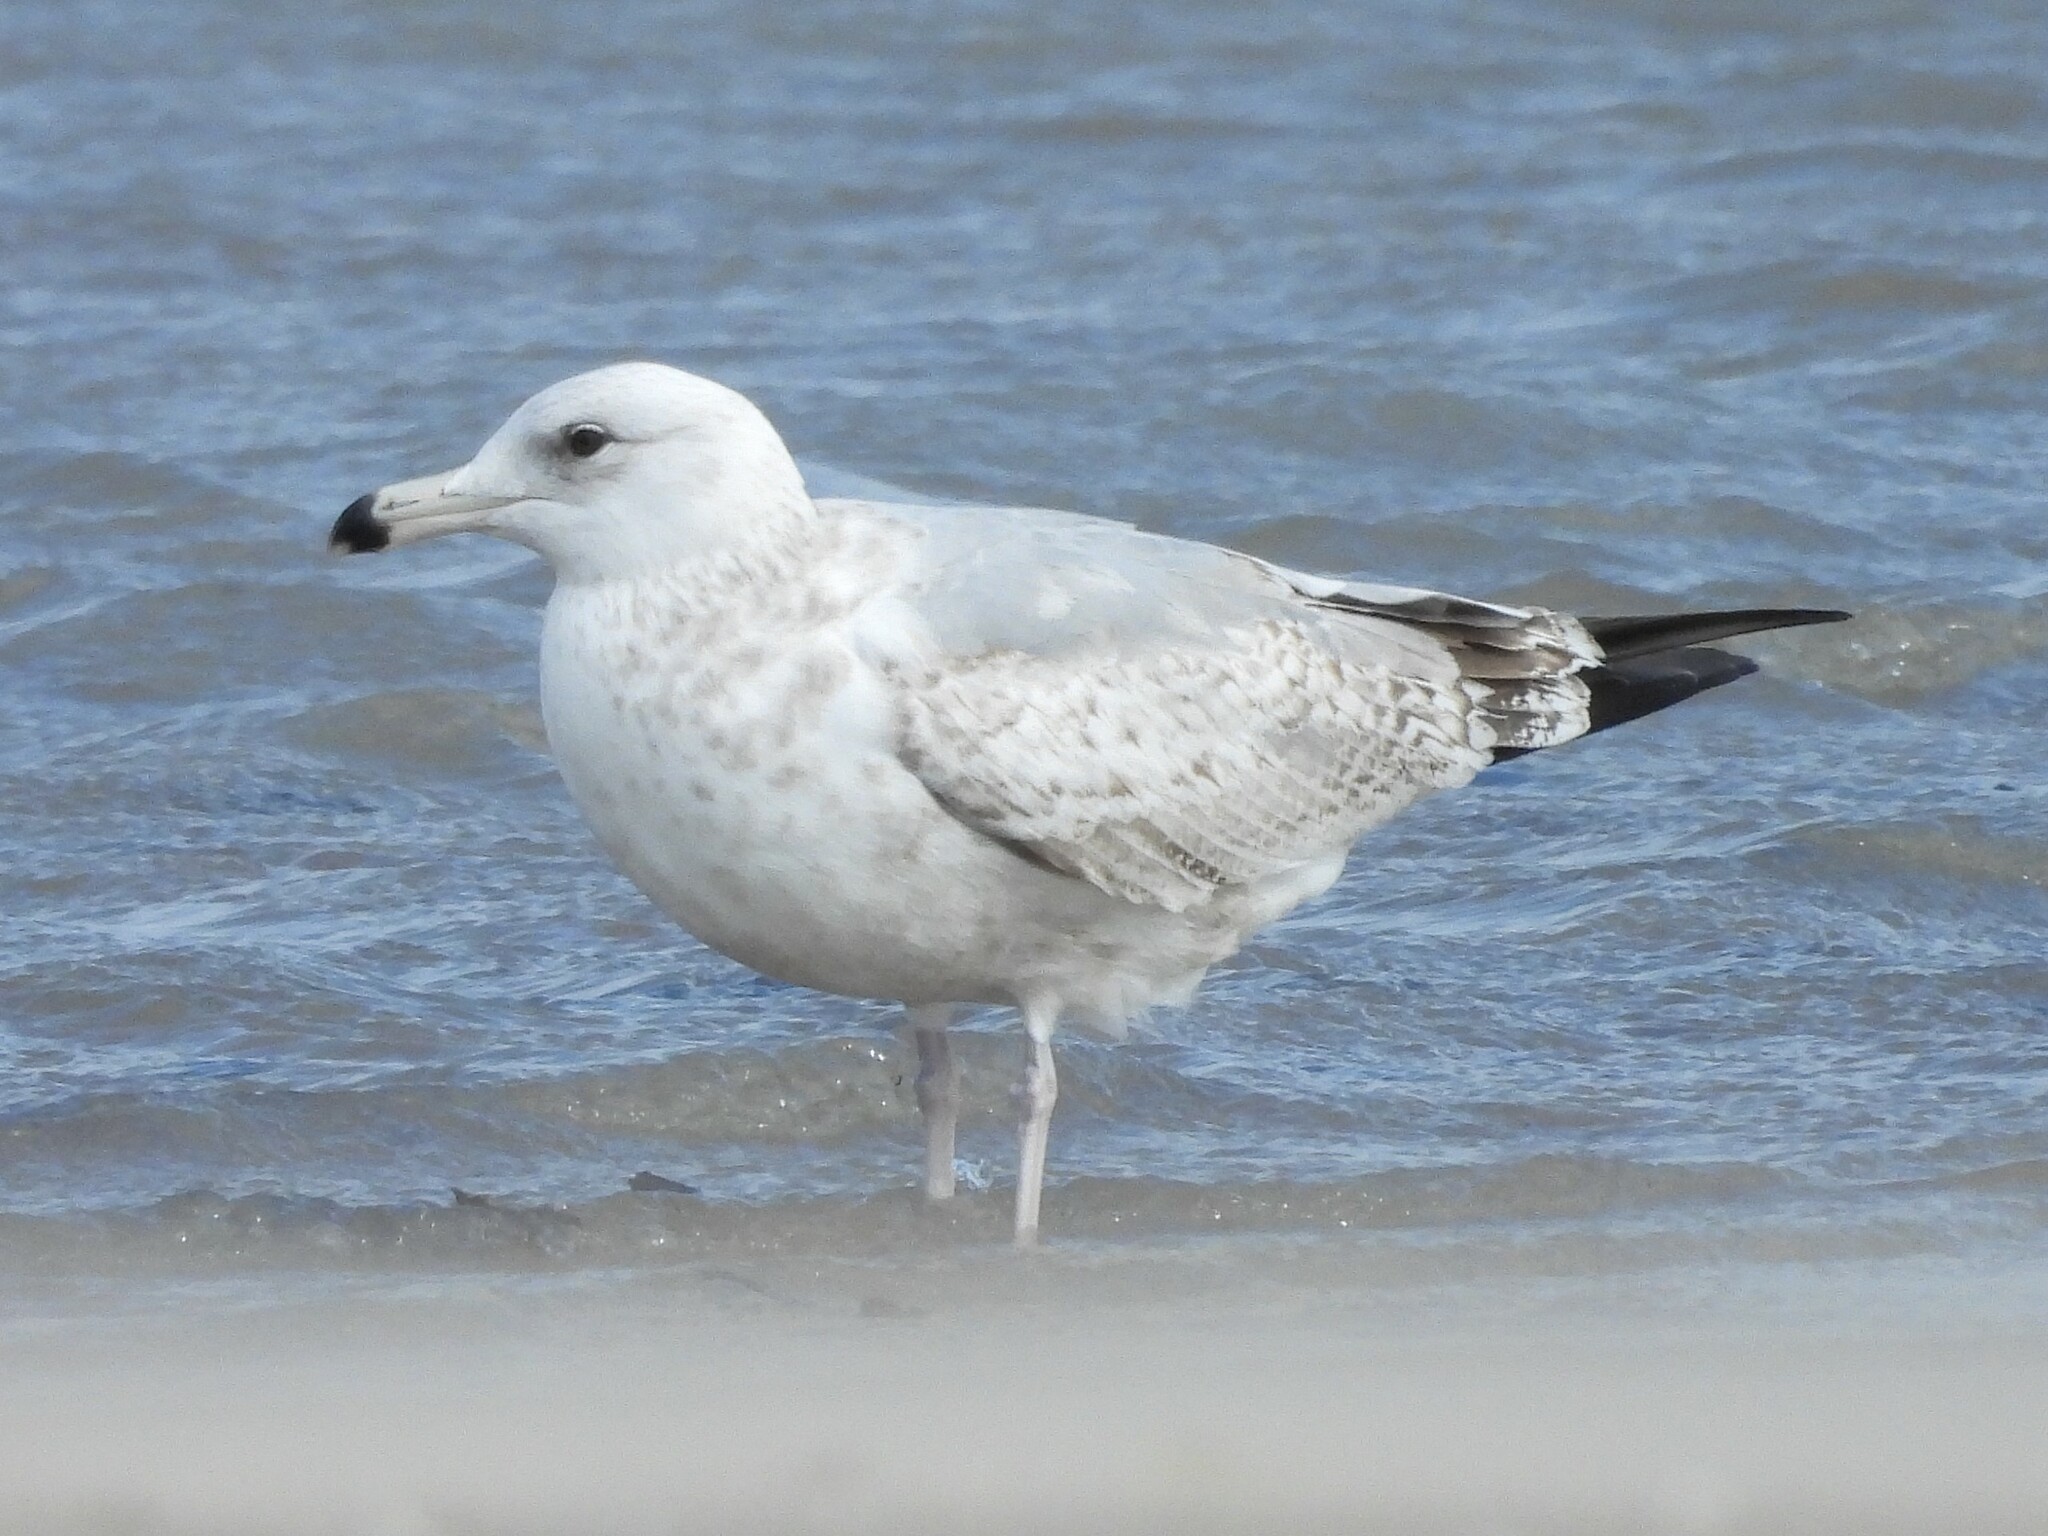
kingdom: Animalia
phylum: Chordata
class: Aves
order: Charadriiformes
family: Laridae
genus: Larus
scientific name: Larus argentatus
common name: Herring gull
